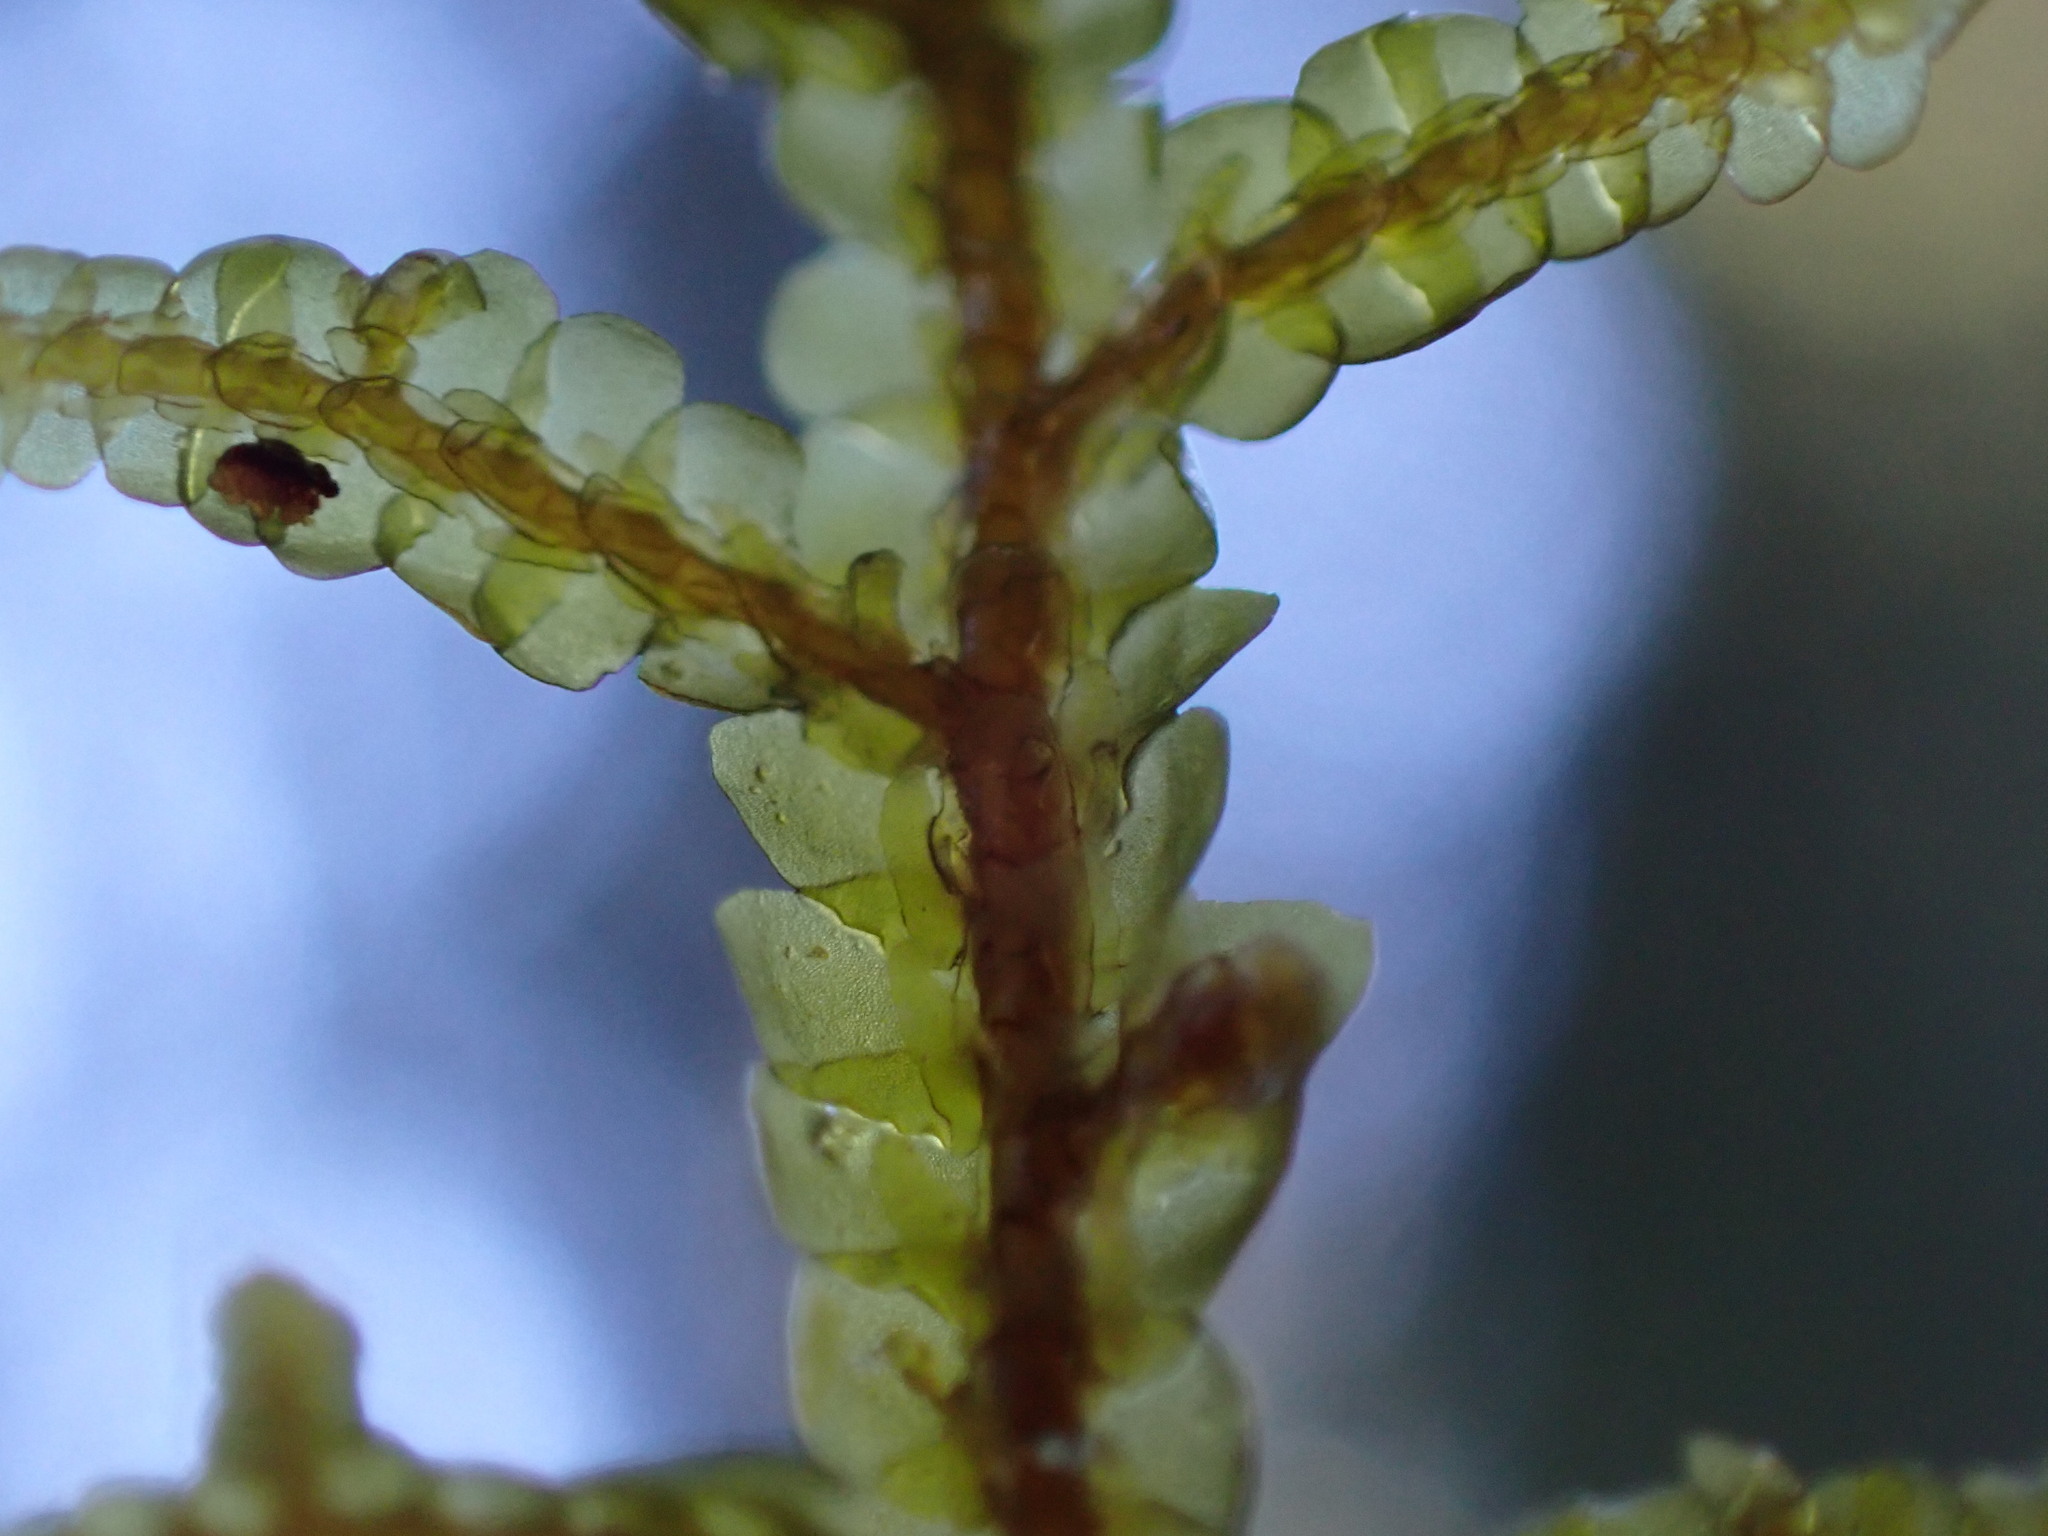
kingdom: Plantae
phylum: Marchantiophyta
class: Jungermanniopsida
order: Porellales
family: Porellaceae
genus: Porella
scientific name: Porella roellii
